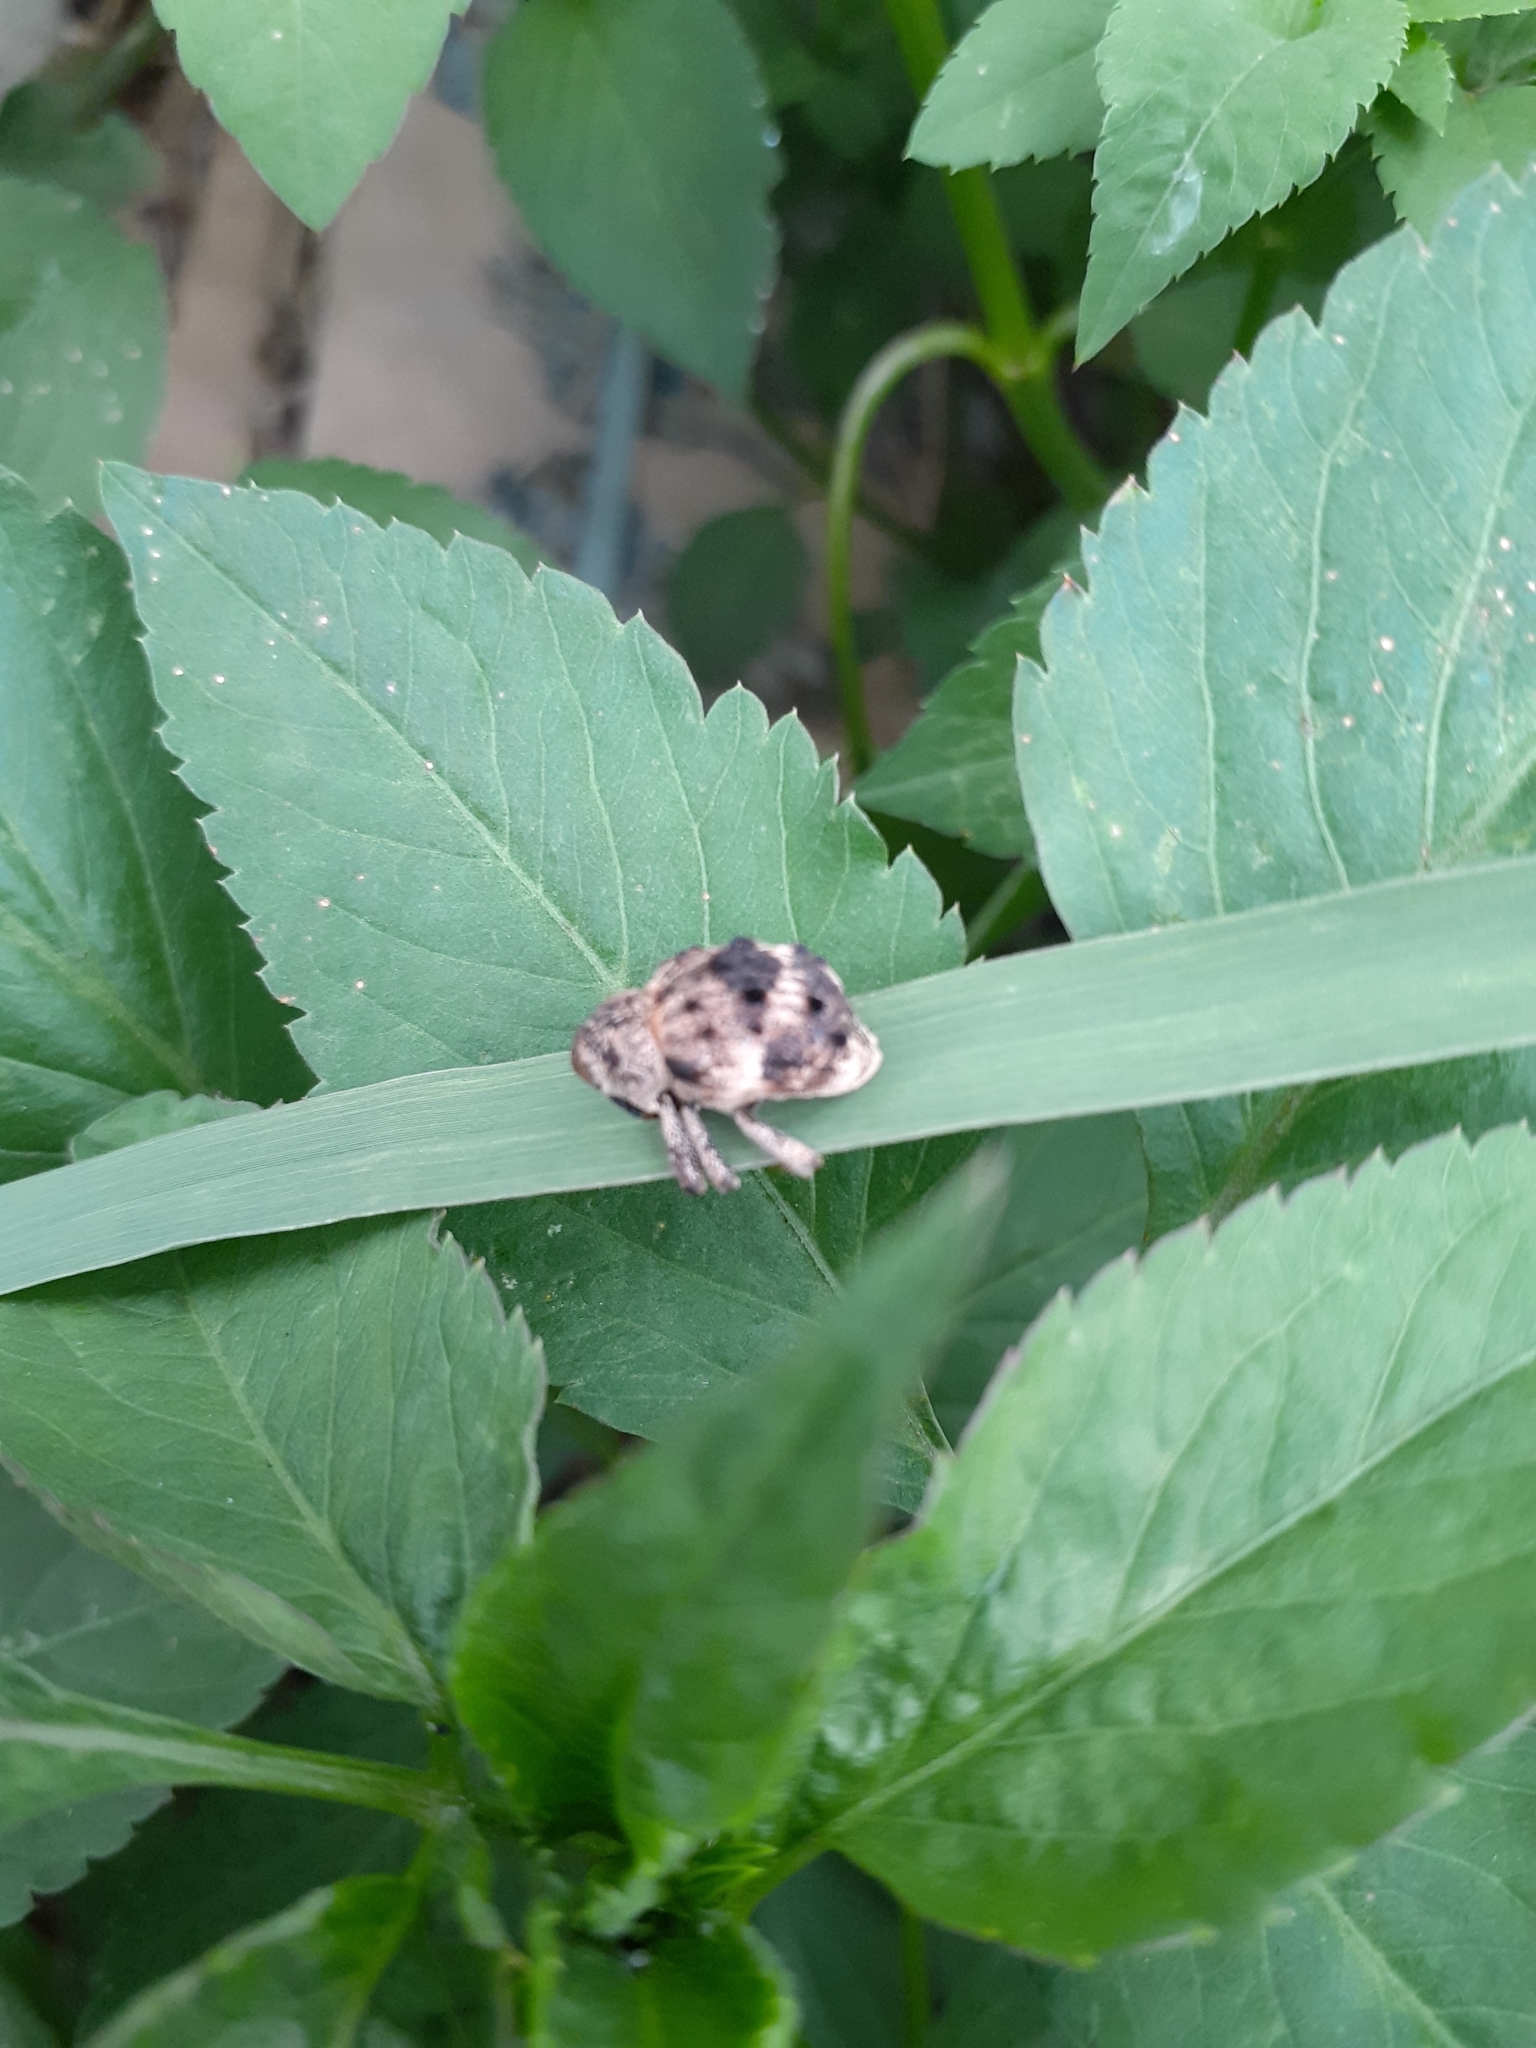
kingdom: Animalia
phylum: Arthropoda
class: Insecta
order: Coleoptera
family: Brachyceridae
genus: Desmidophorus
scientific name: Desmidophorus crassus
